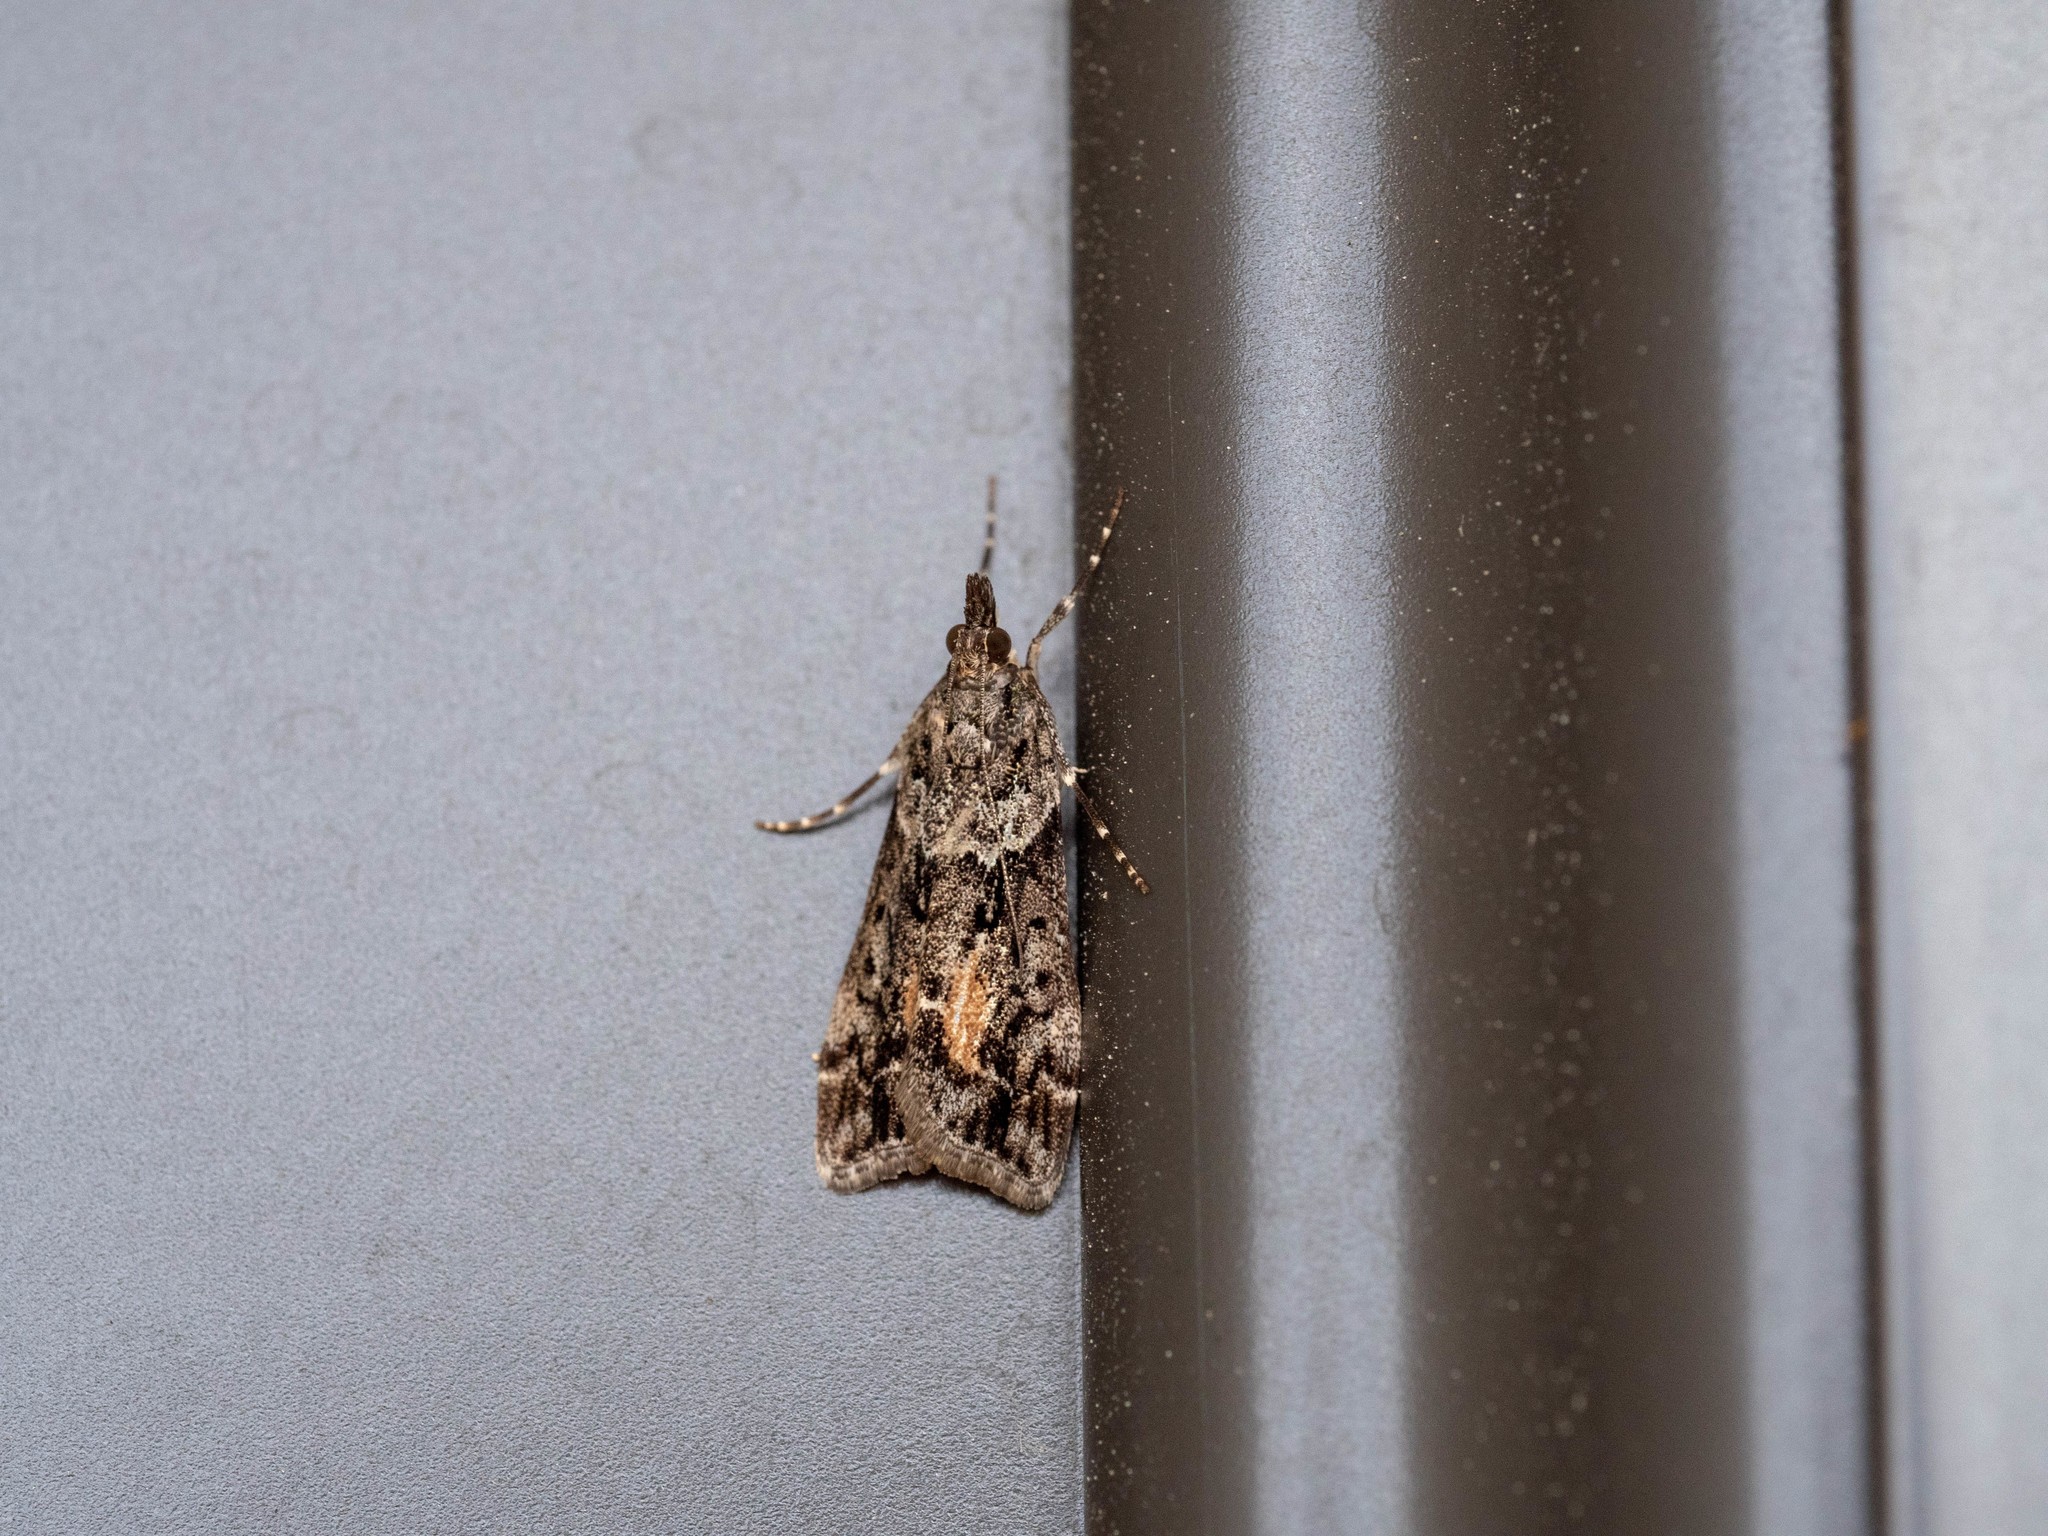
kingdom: Animalia
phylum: Arthropoda
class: Insecta
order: Lepidoptera
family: Crambidae
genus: Eudonia
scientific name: Eudonia submarginalis
